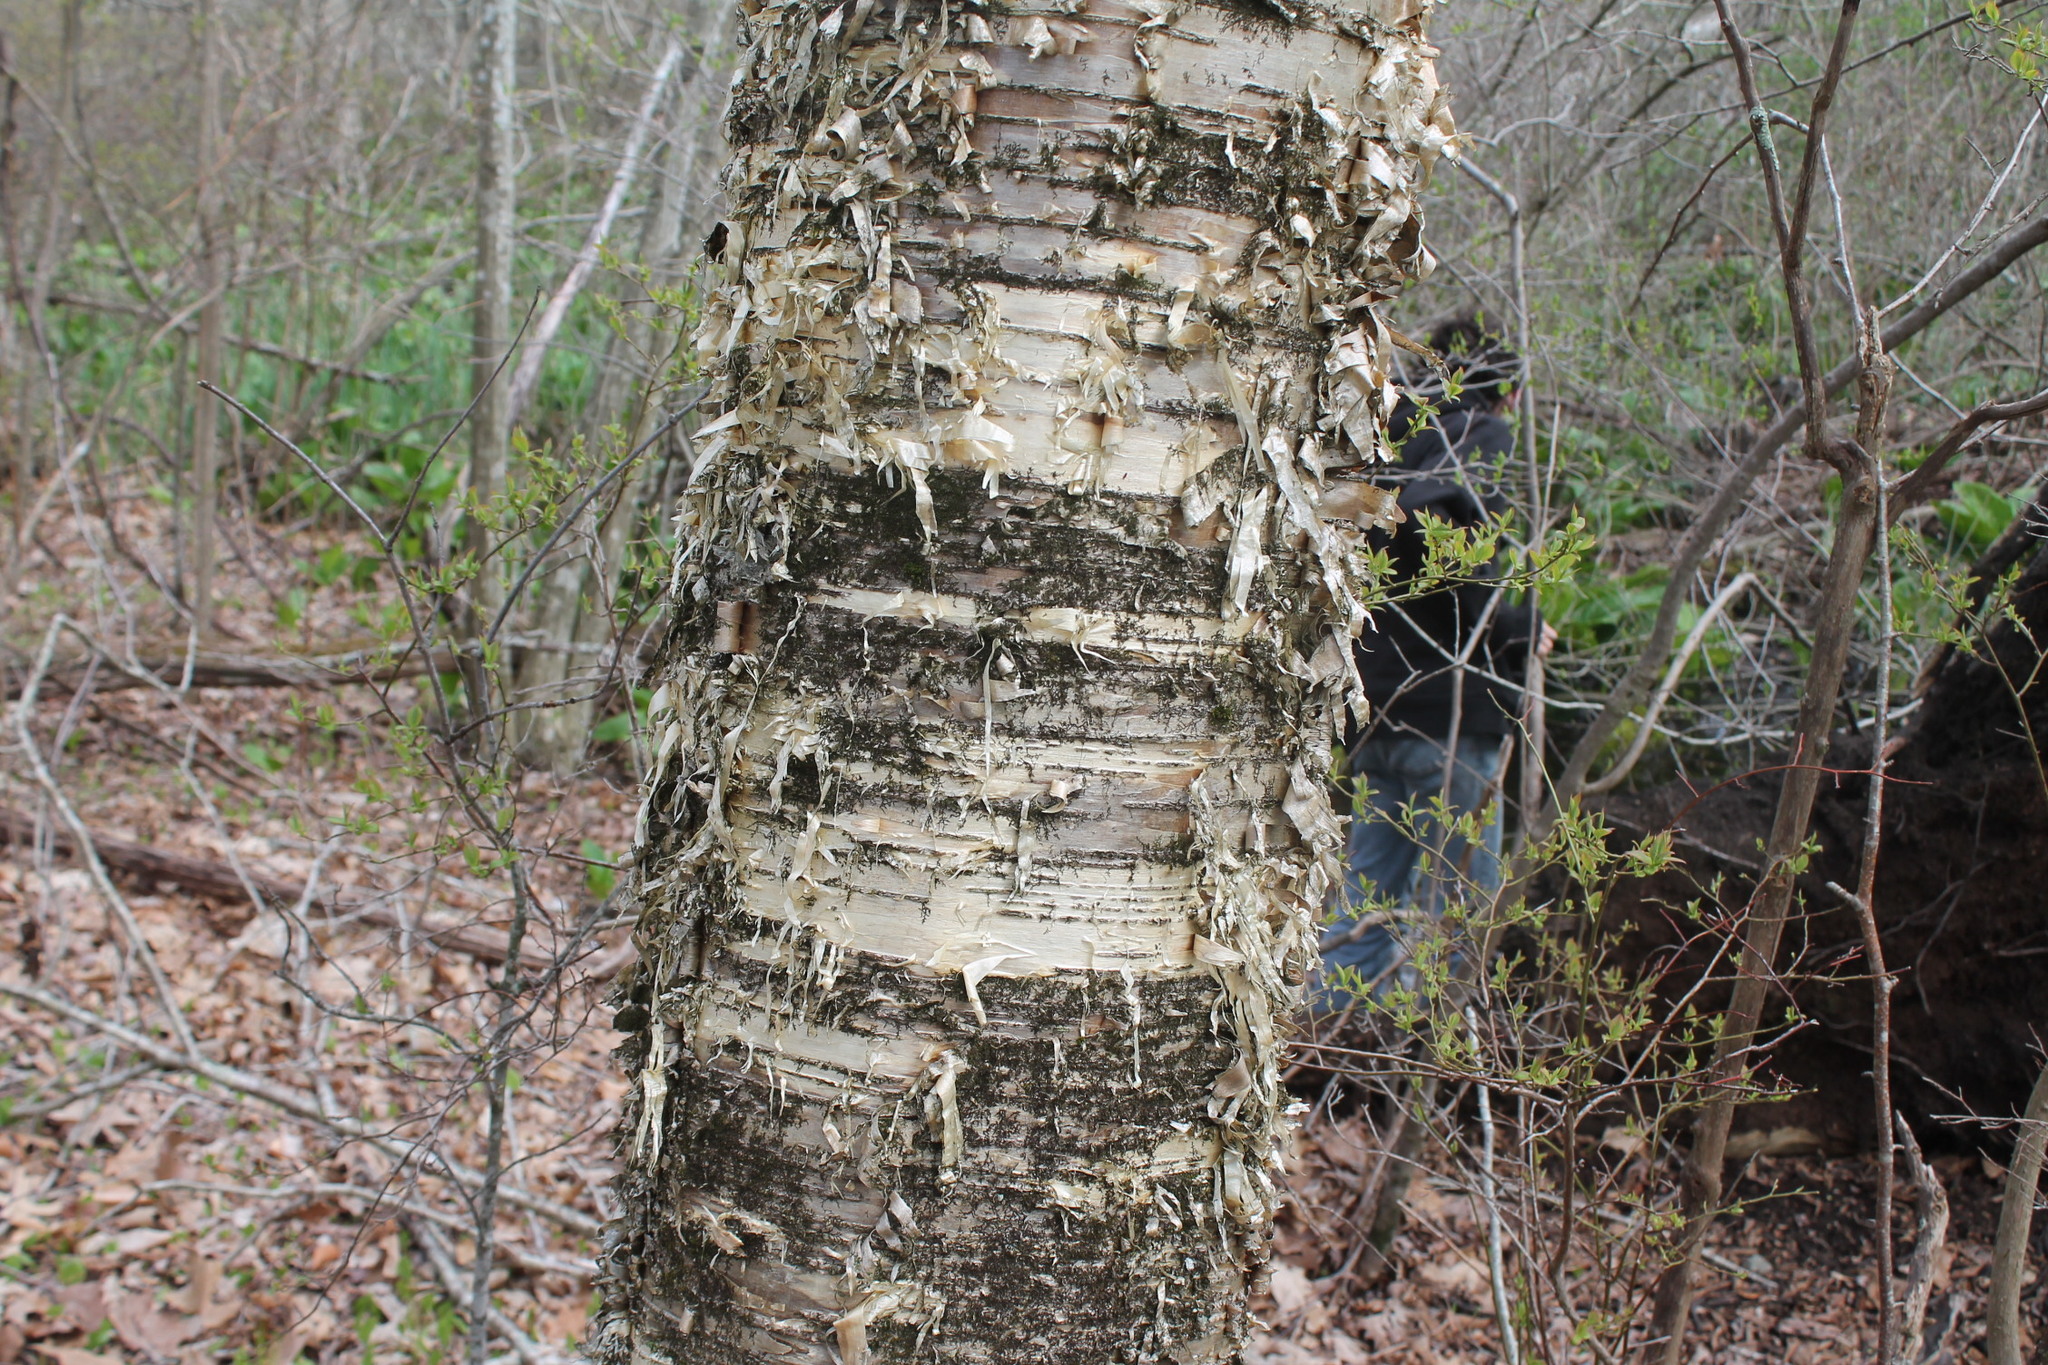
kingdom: Plantae
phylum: Tracheophyta
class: Magnoliopsida
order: Fagales
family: Betulaceae
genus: Betula
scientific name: Betula alleghaniensis
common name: Yellow birch
